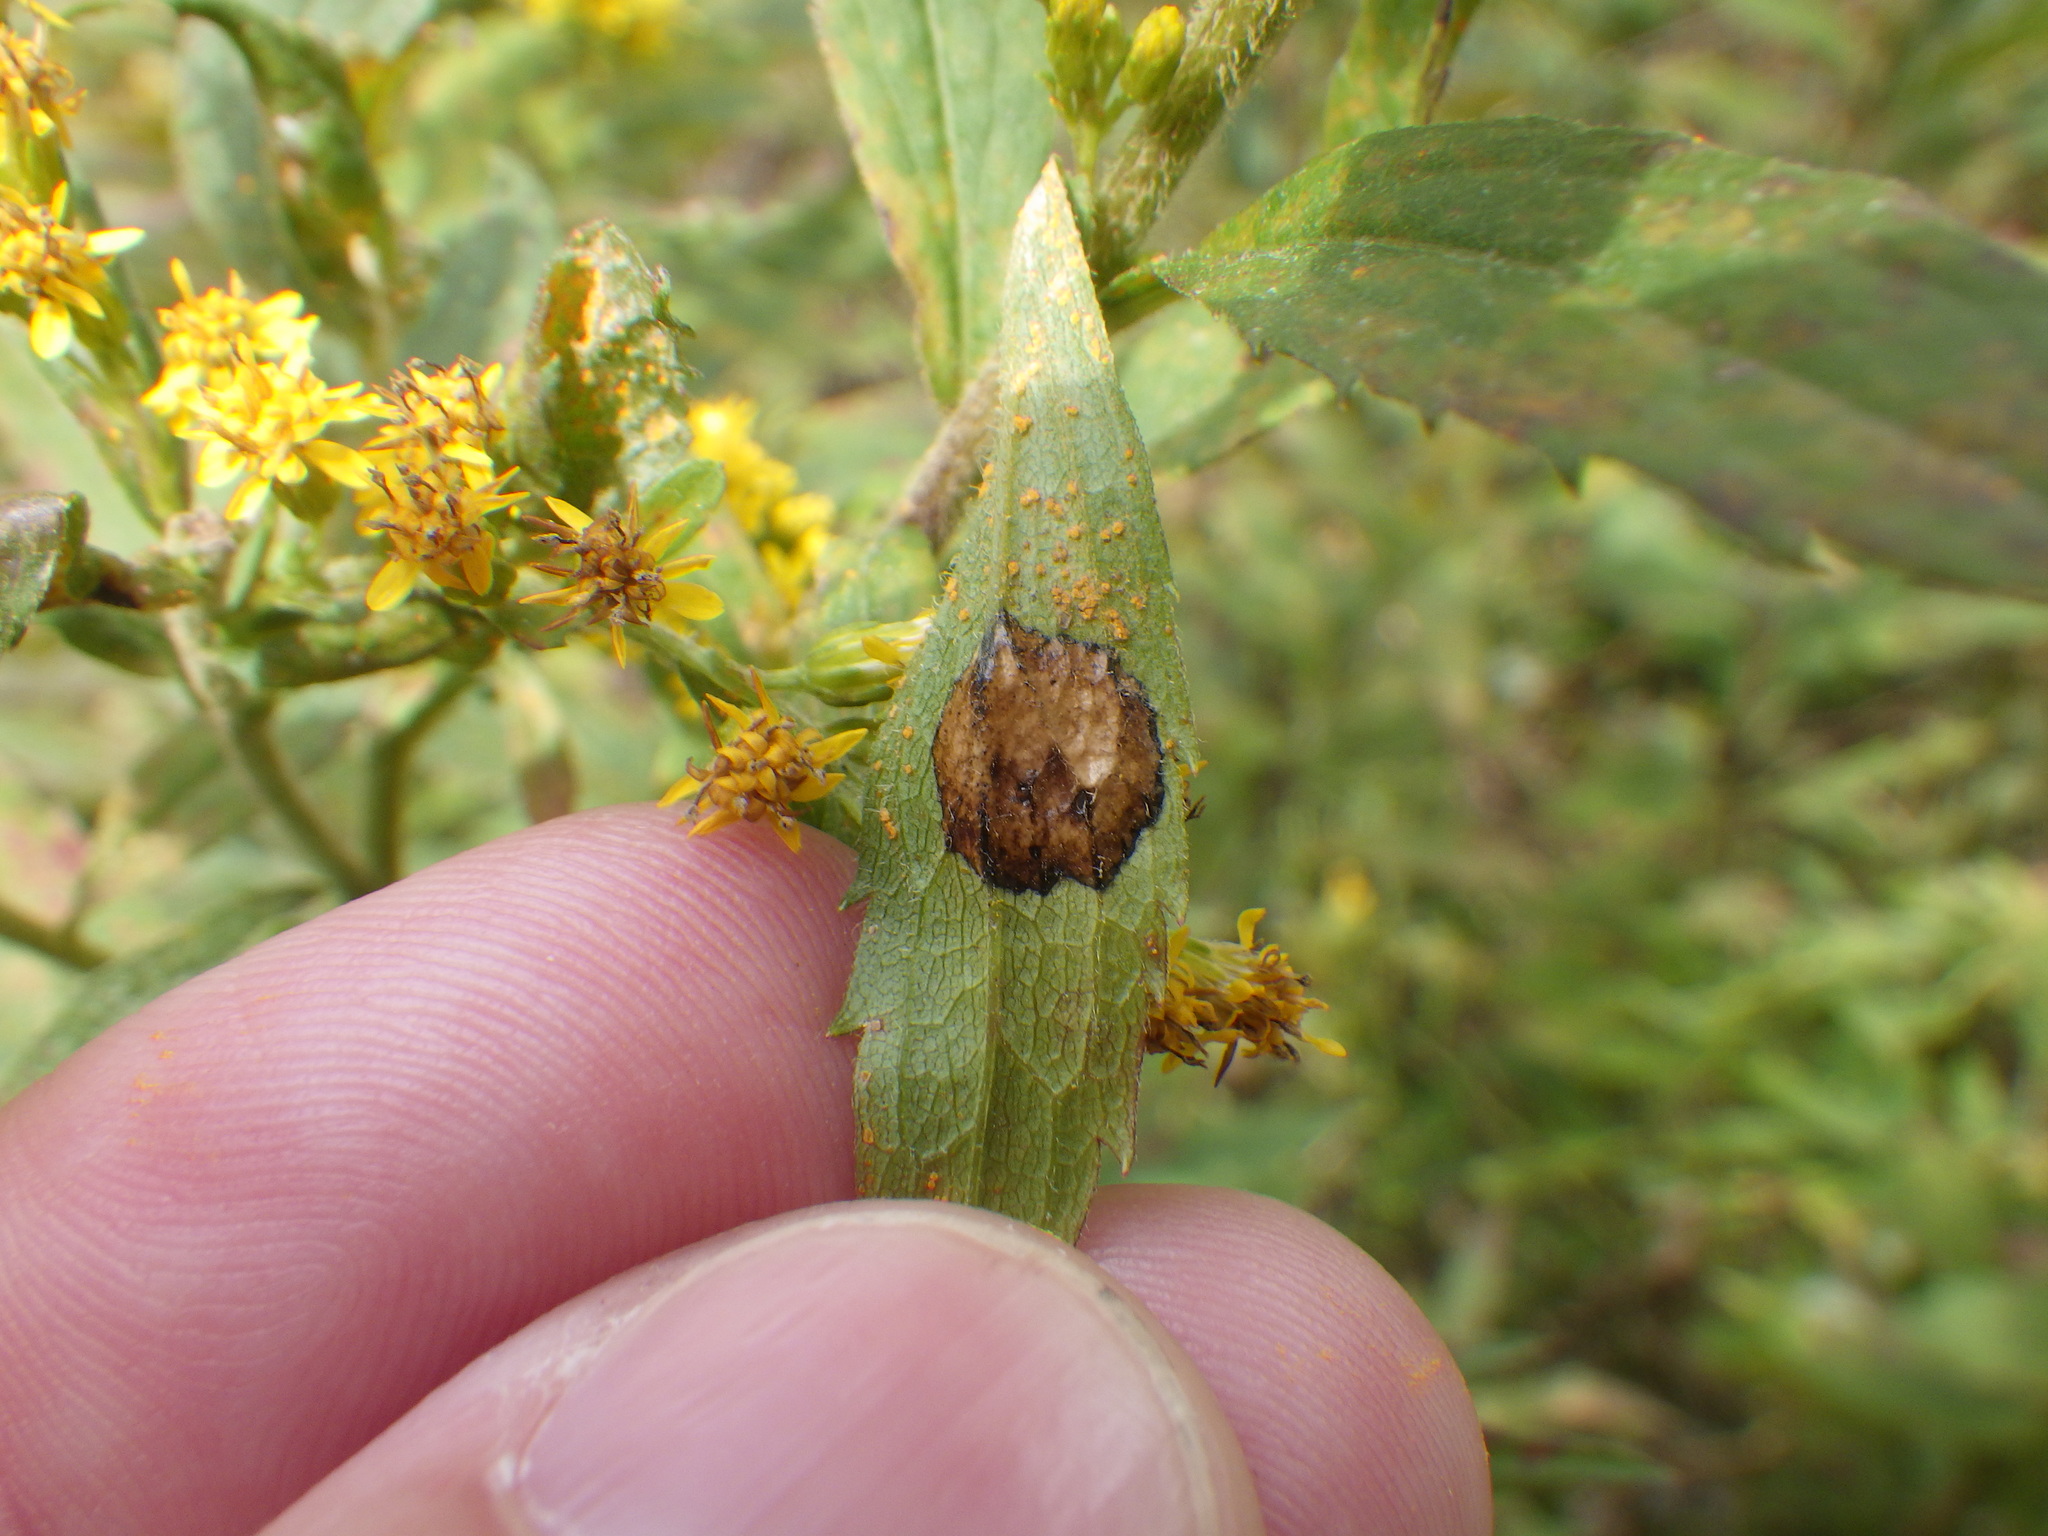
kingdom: Animalia
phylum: Arthropoda
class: Insecta
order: Diptera
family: Cecidomyiidae
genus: Asteromyia
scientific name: Asteromyia carbonifera
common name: Carbonifera goldenrod gall midge
